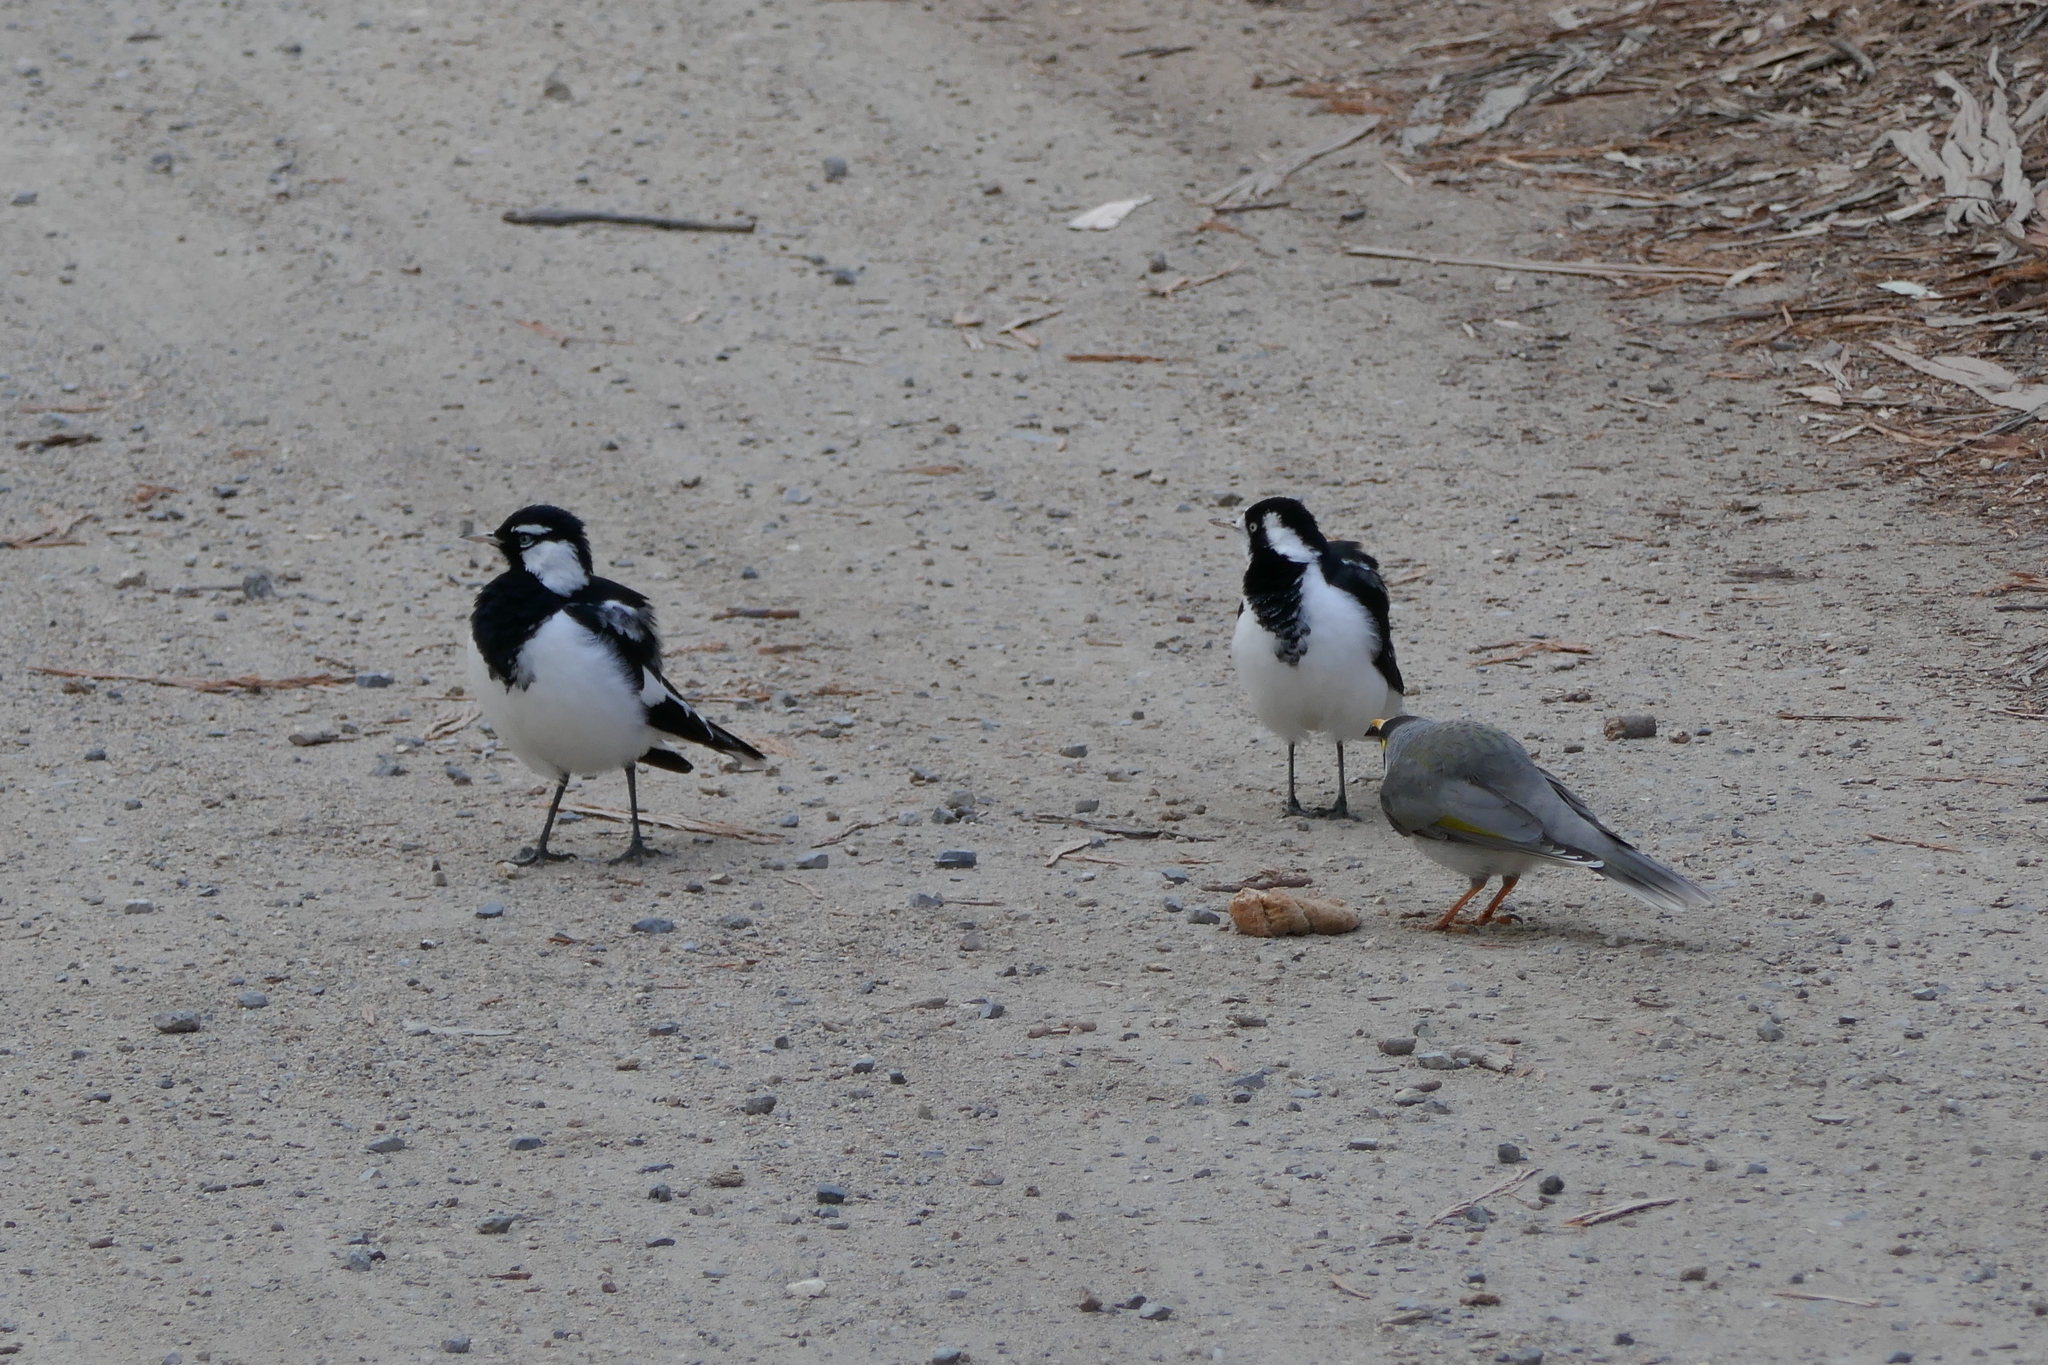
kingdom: Animalia
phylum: Chordata
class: Aves
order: Passeriformes
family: Monarchidae
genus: Grallina
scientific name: Grallina cyanoleuca
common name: Magpie-lark
